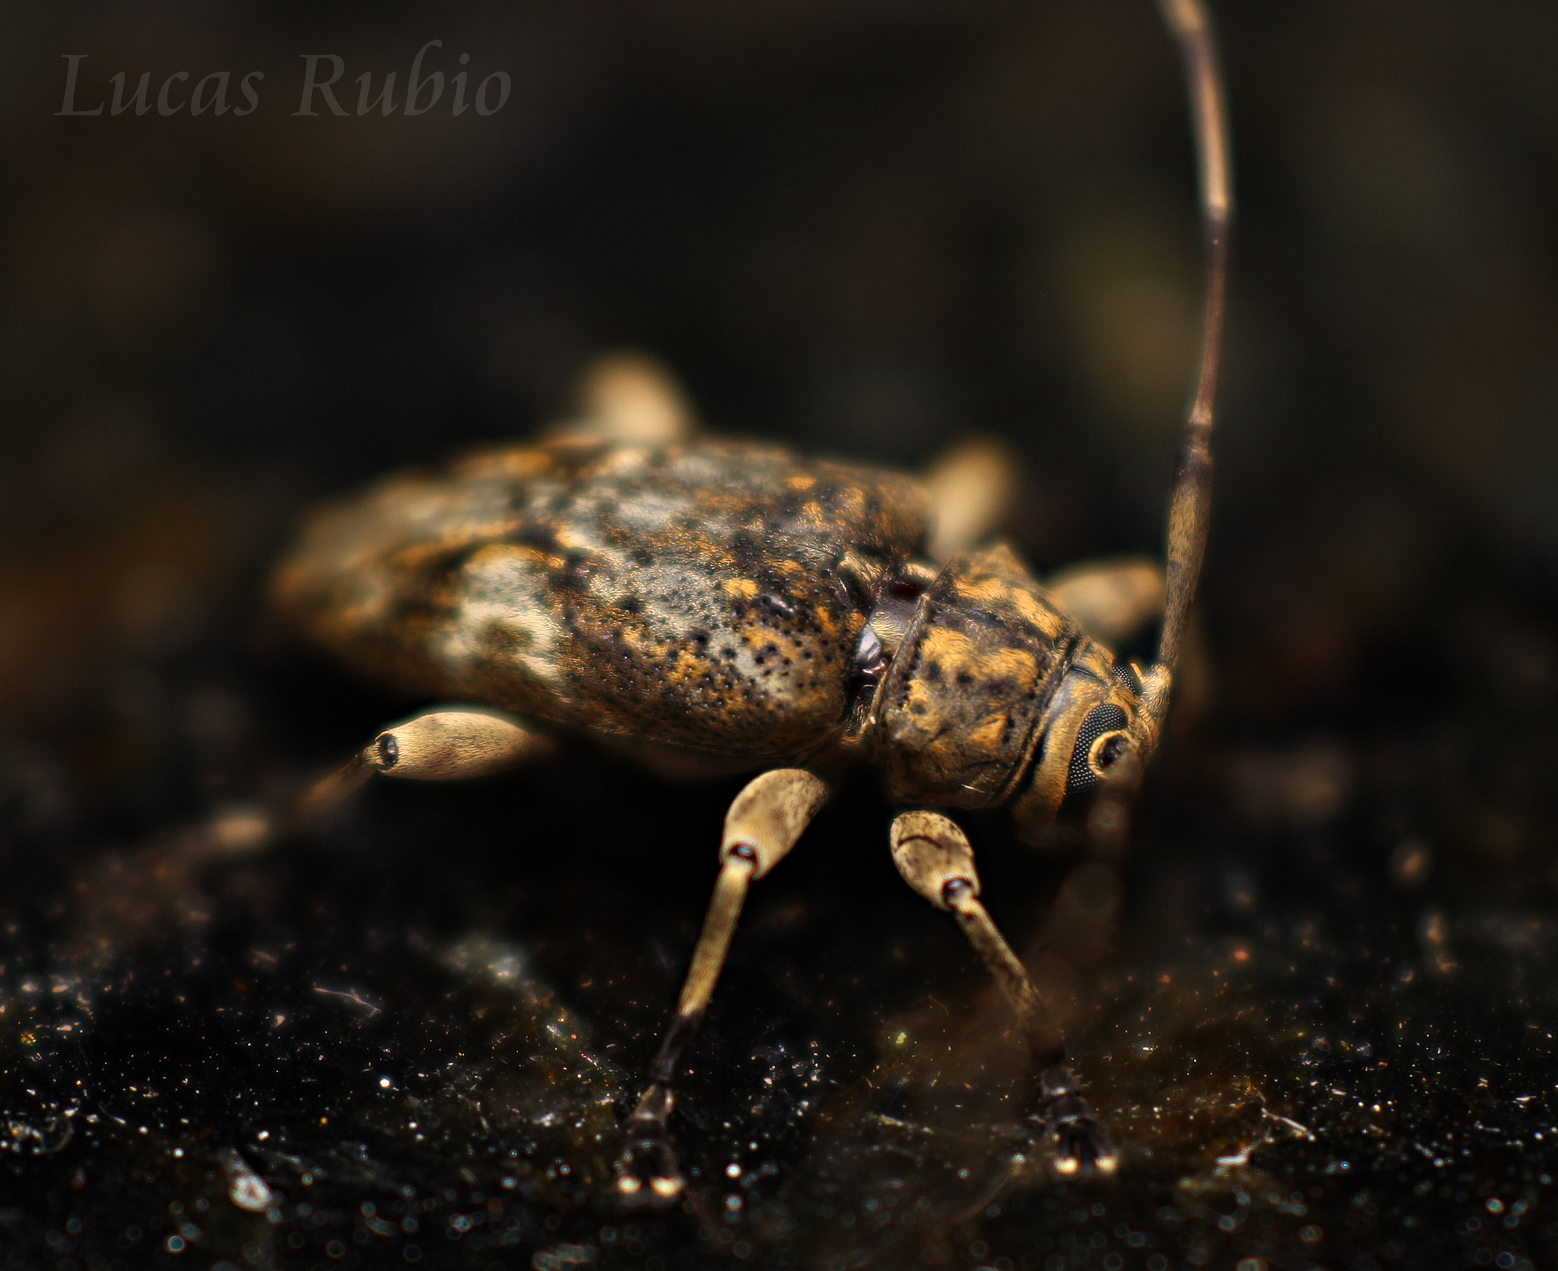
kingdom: Animalia
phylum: Arthropoda
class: Insecta
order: Coleoptera
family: Cerambycidae
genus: Nyssodrysina
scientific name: Nyssodrysina lignaria
